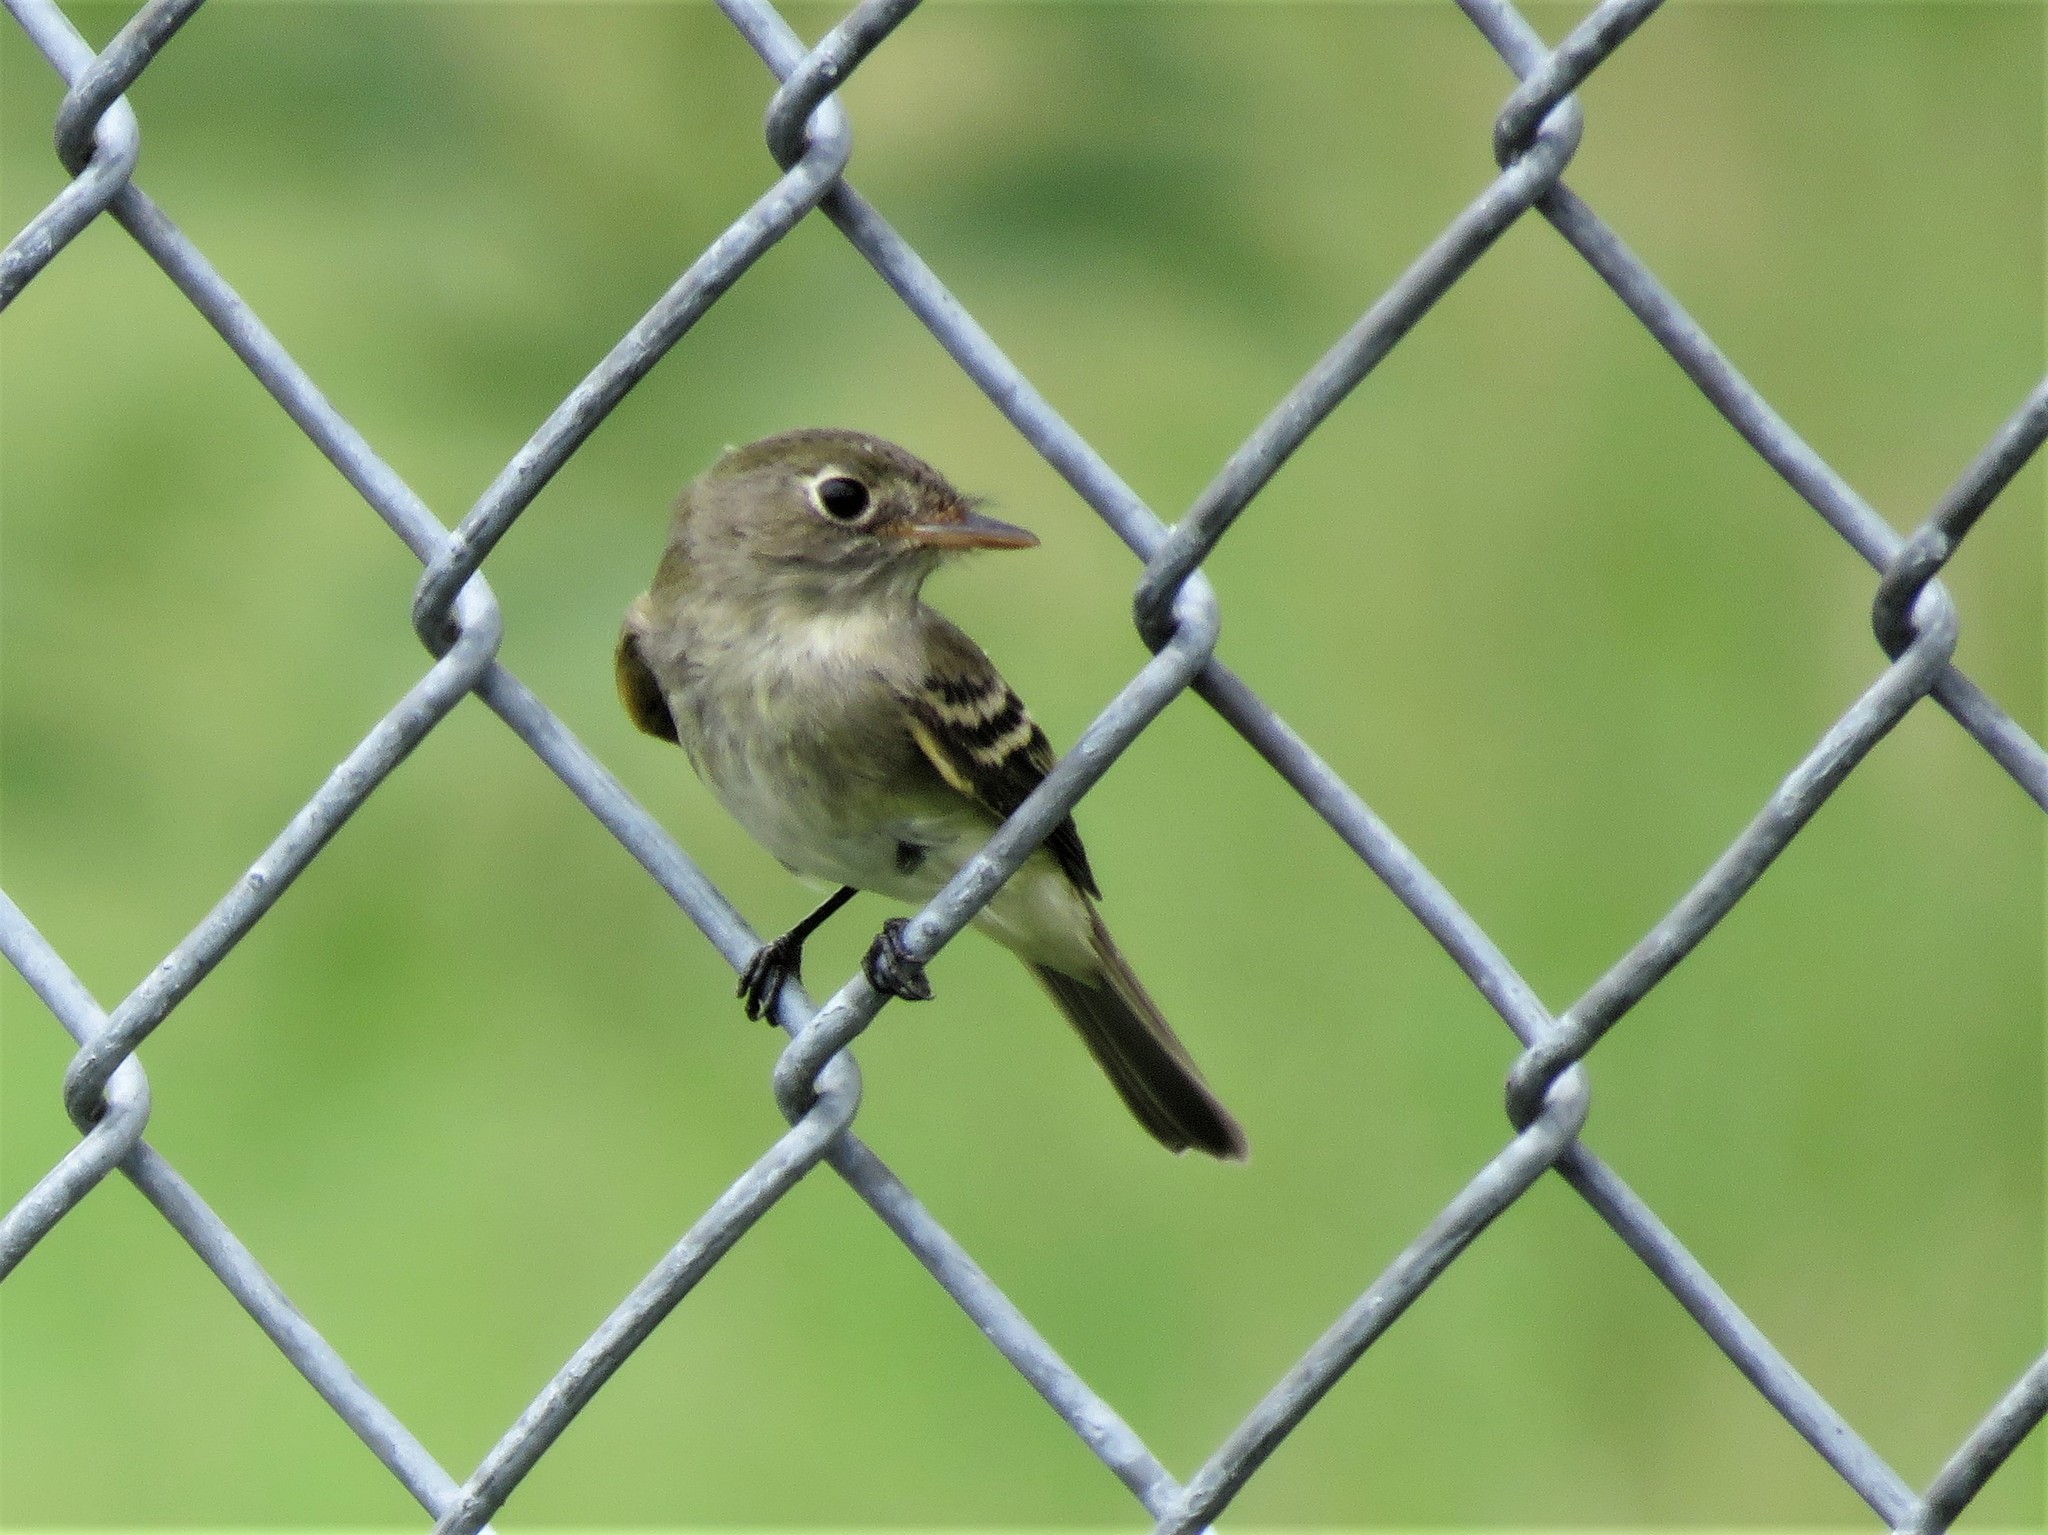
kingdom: Animalia
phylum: Chordata
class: Aves
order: Passeriformes
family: Tyrannidae
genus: Empidonax
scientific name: Empidonax minimus
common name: Least flycatcher
